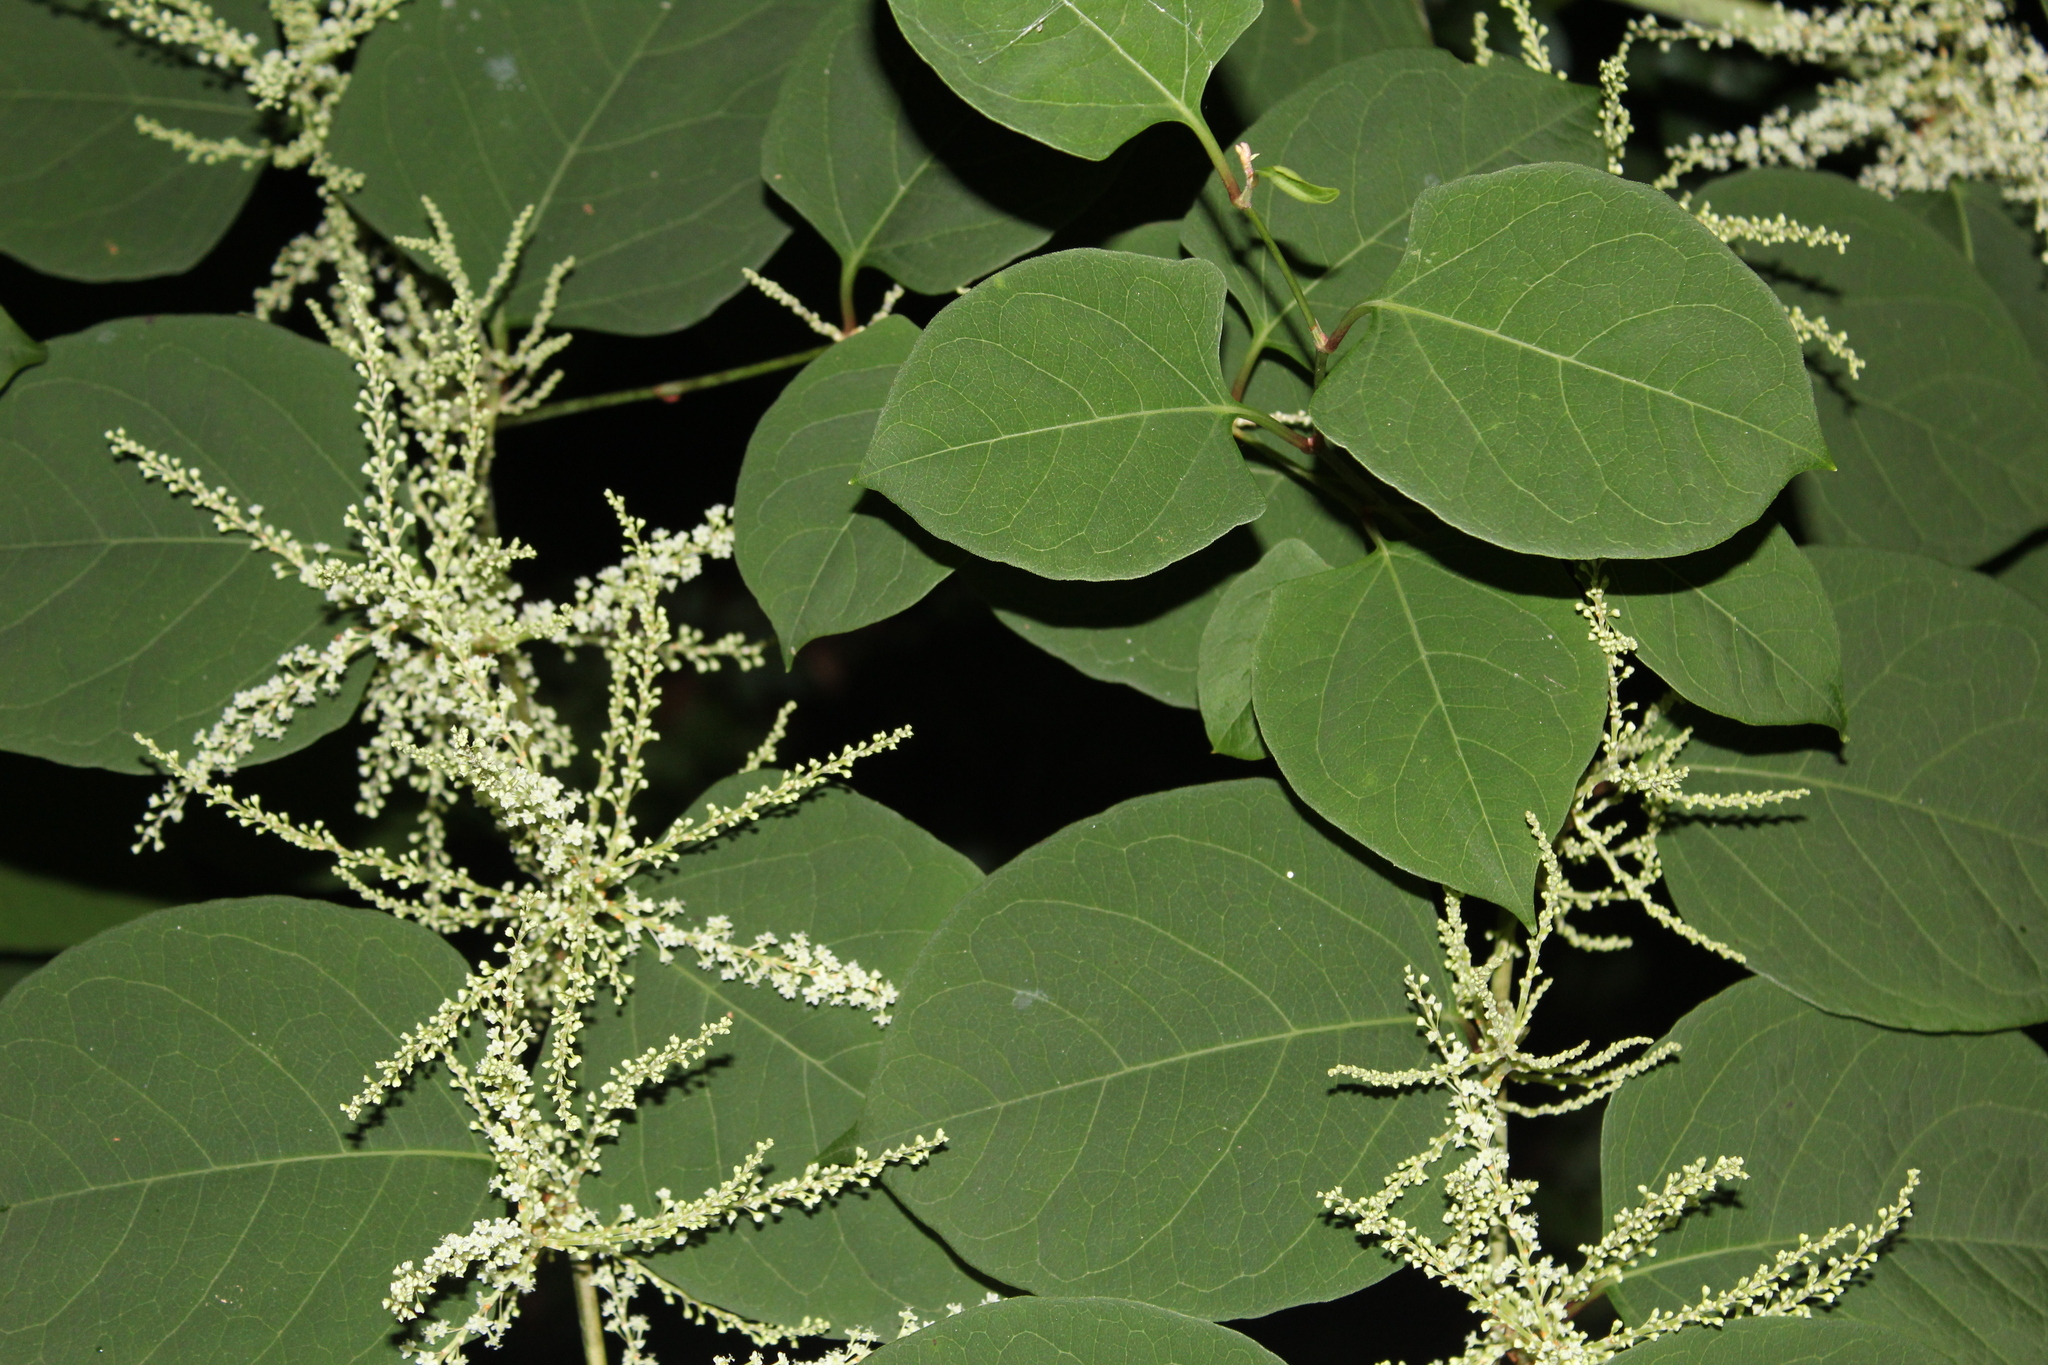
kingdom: Plantae
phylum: Tracheophyta
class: Magnoliopsida
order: Caryophyllales
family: Polygonaceae
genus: Reynoutria
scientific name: Reynoutria japonica
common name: Japanese knotweed
